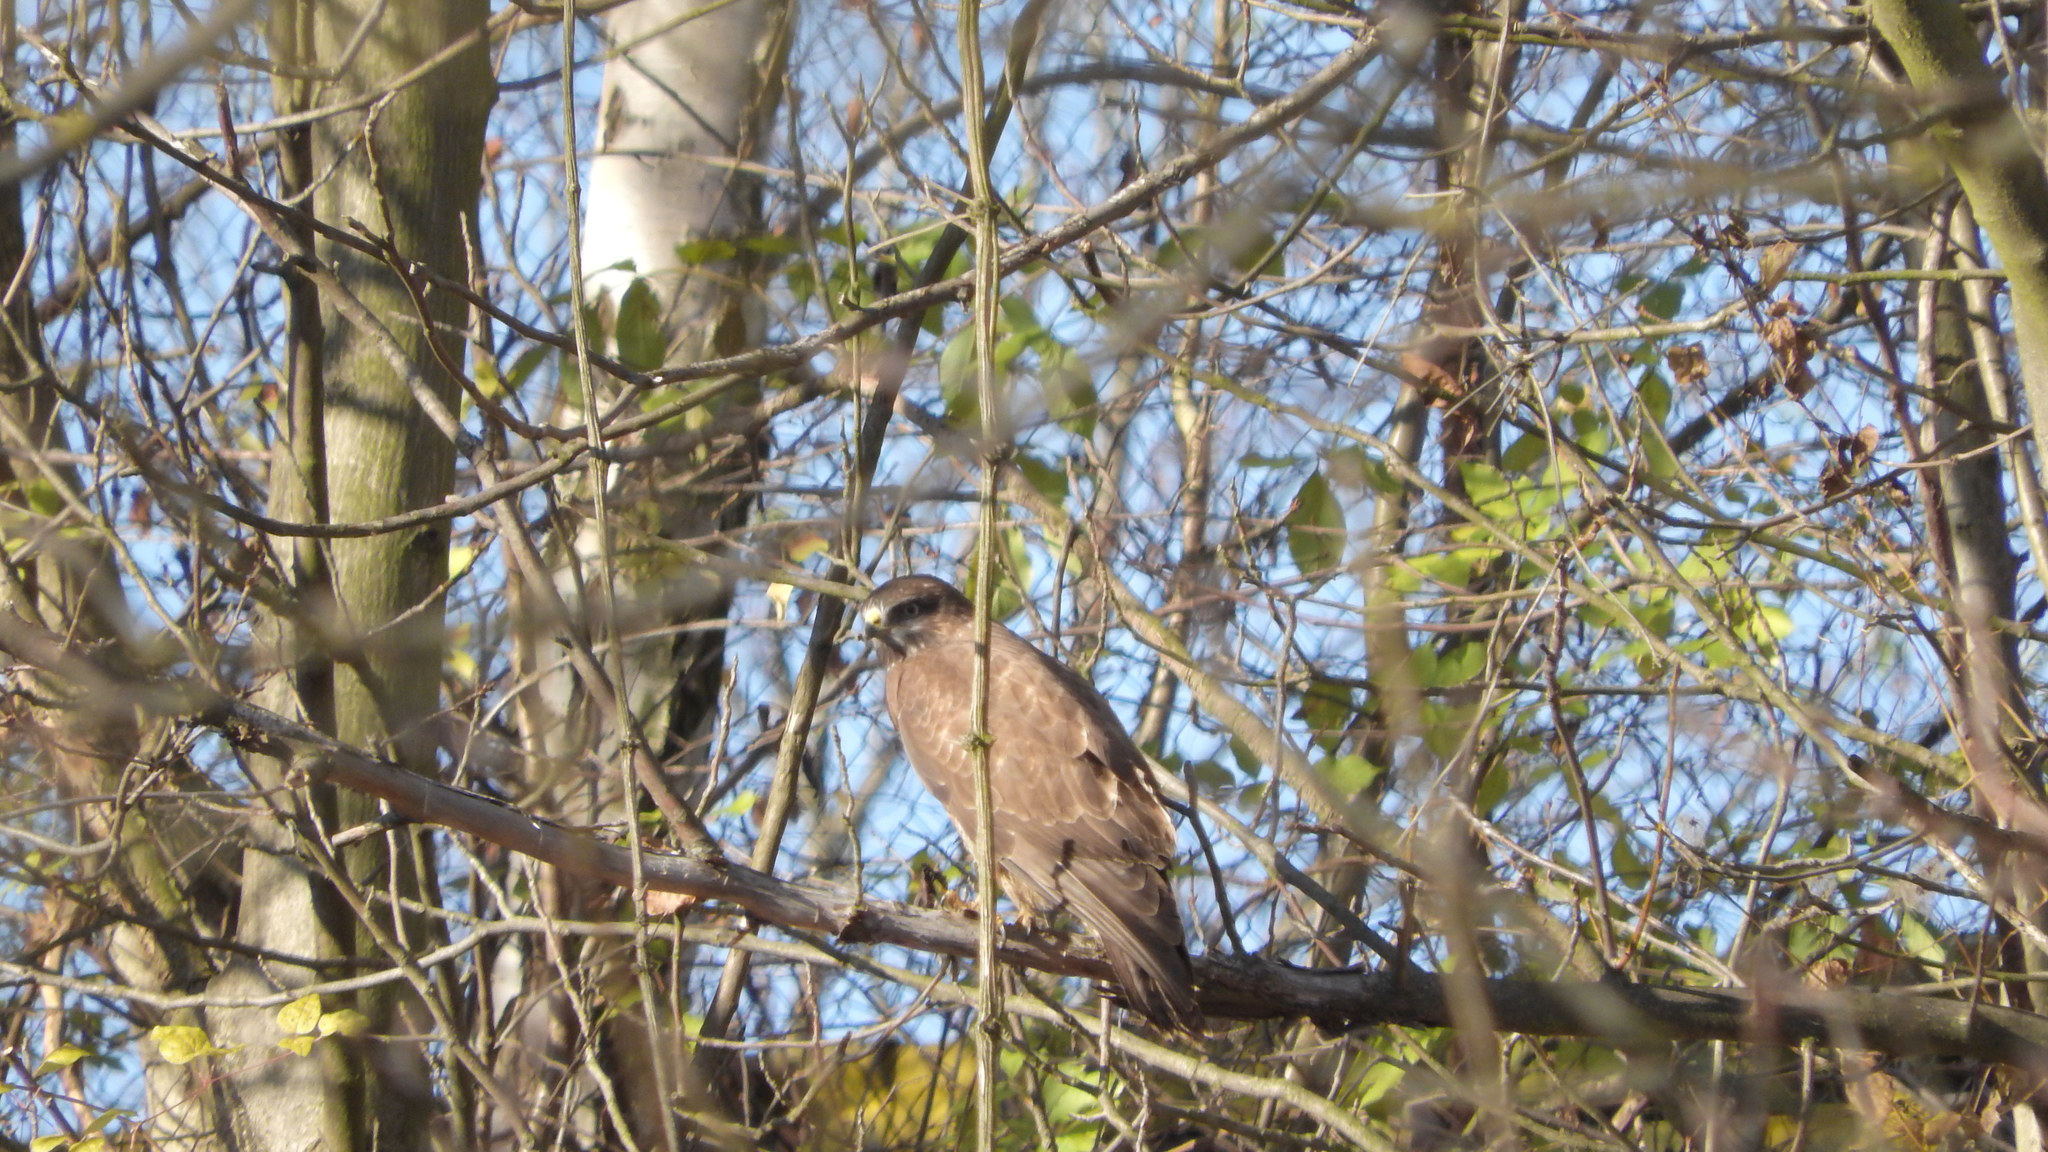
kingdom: Animalia
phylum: Chordata
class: Aves
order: Accipitriformes
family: Accipitridae
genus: Buteo
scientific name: Buteo buteo
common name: Common buzzard
